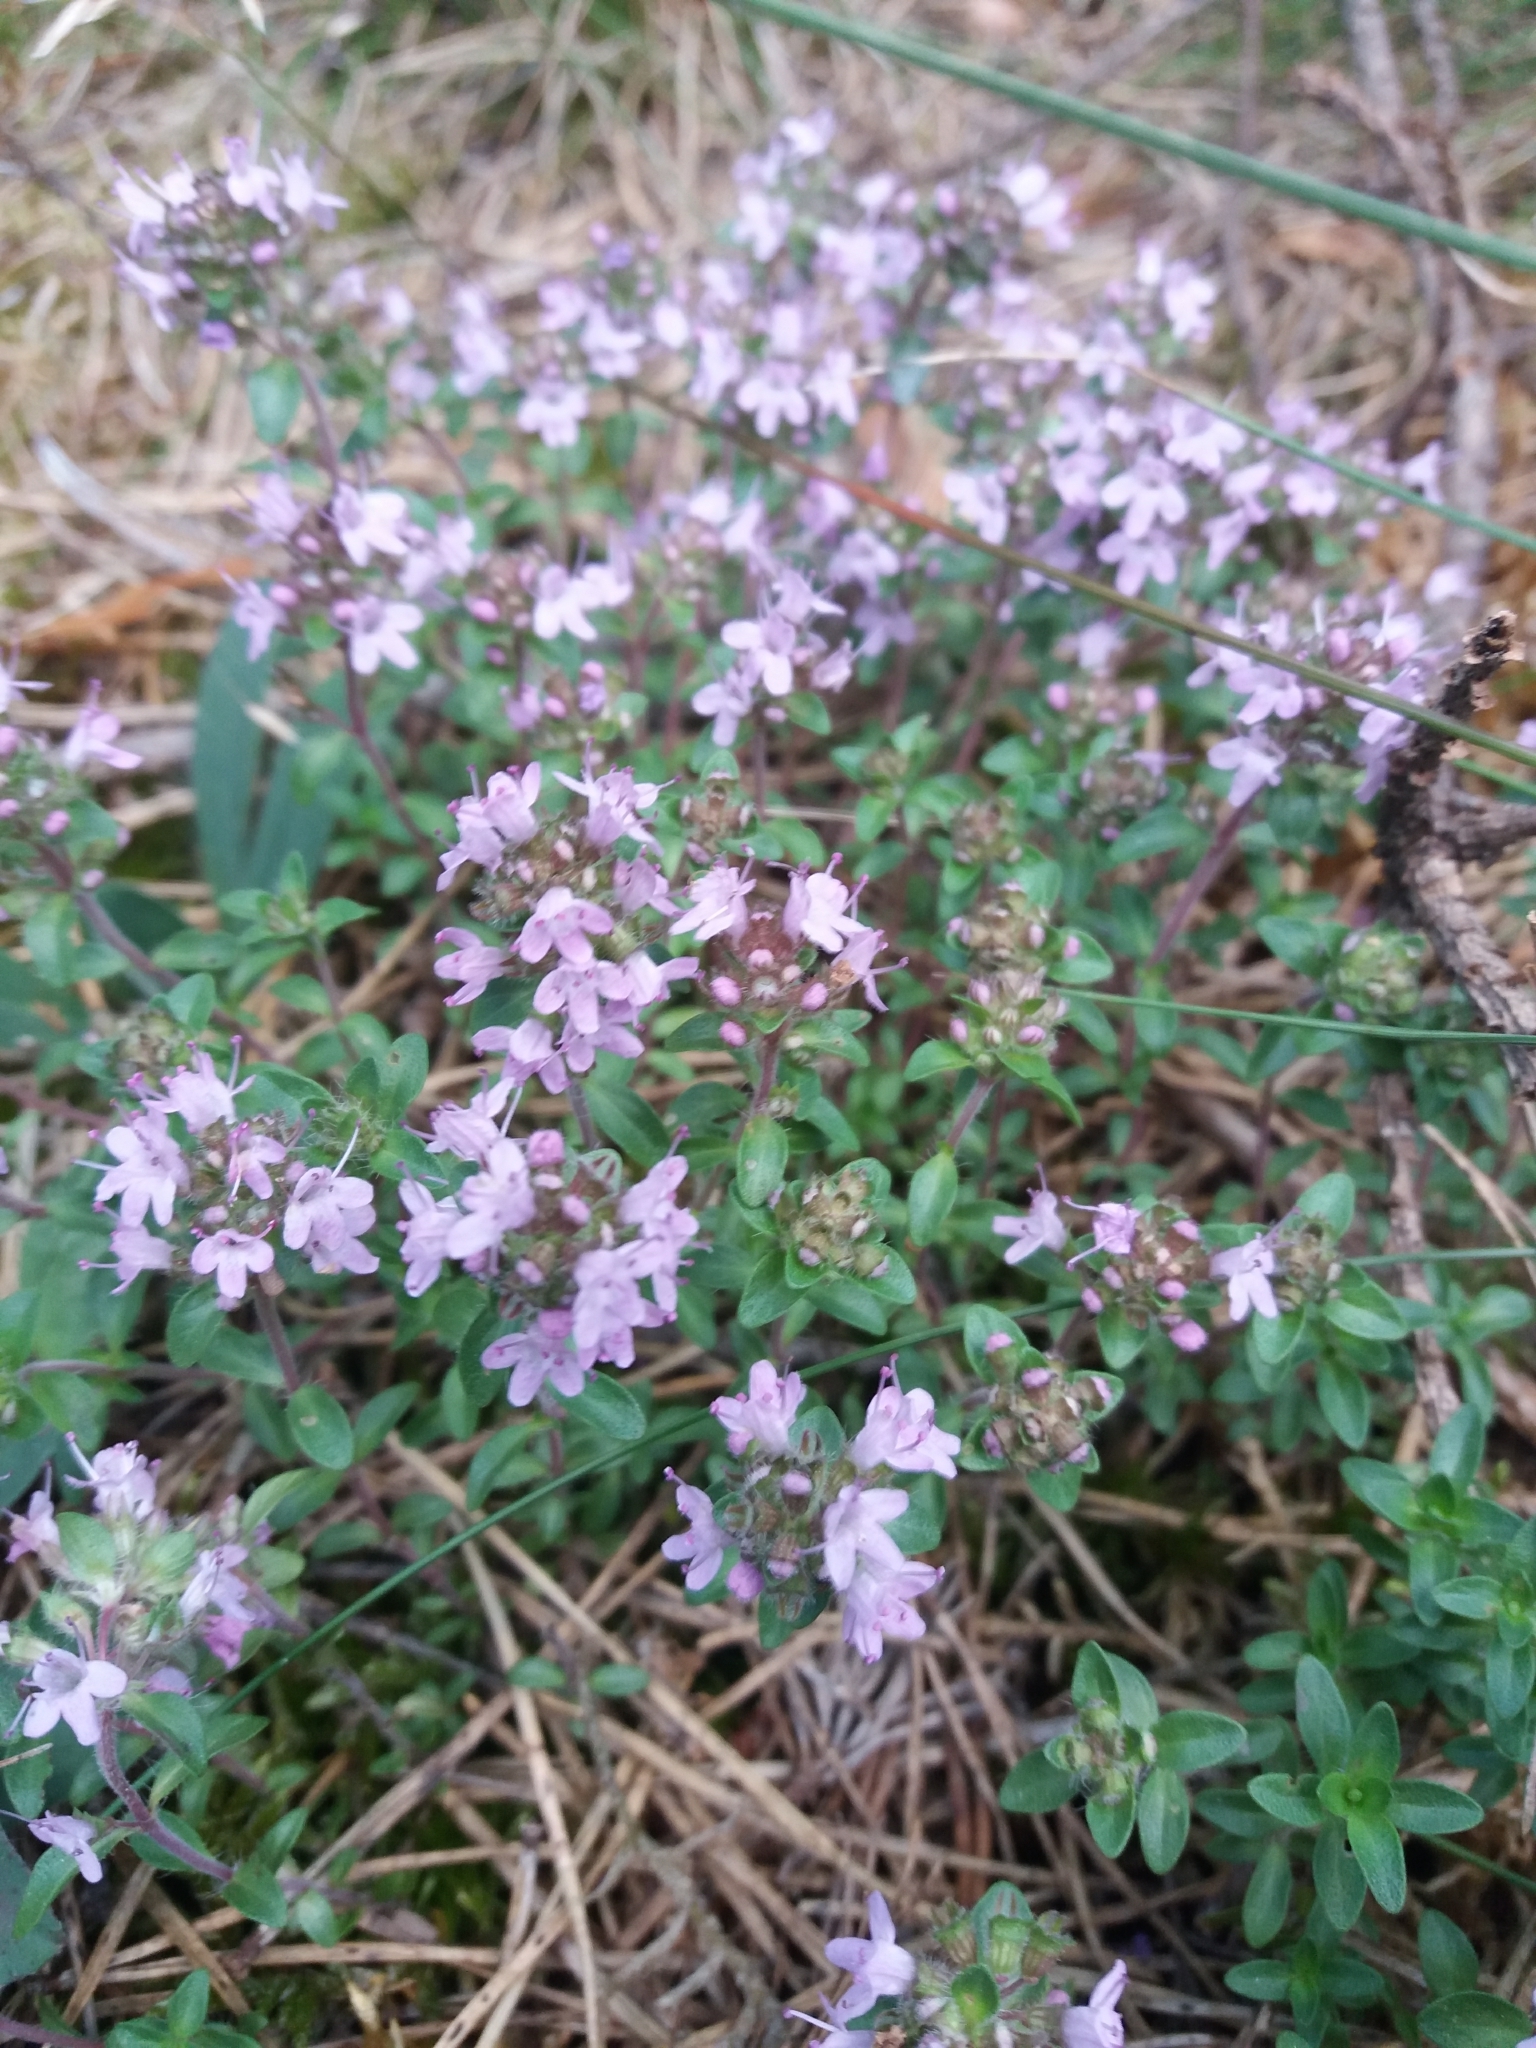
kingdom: Plantae
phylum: Tracheophyta
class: Magnoliopsida
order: Lamiales
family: Lamiaceae
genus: Thymus
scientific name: Thymus serpyllum
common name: Breckland thyme
